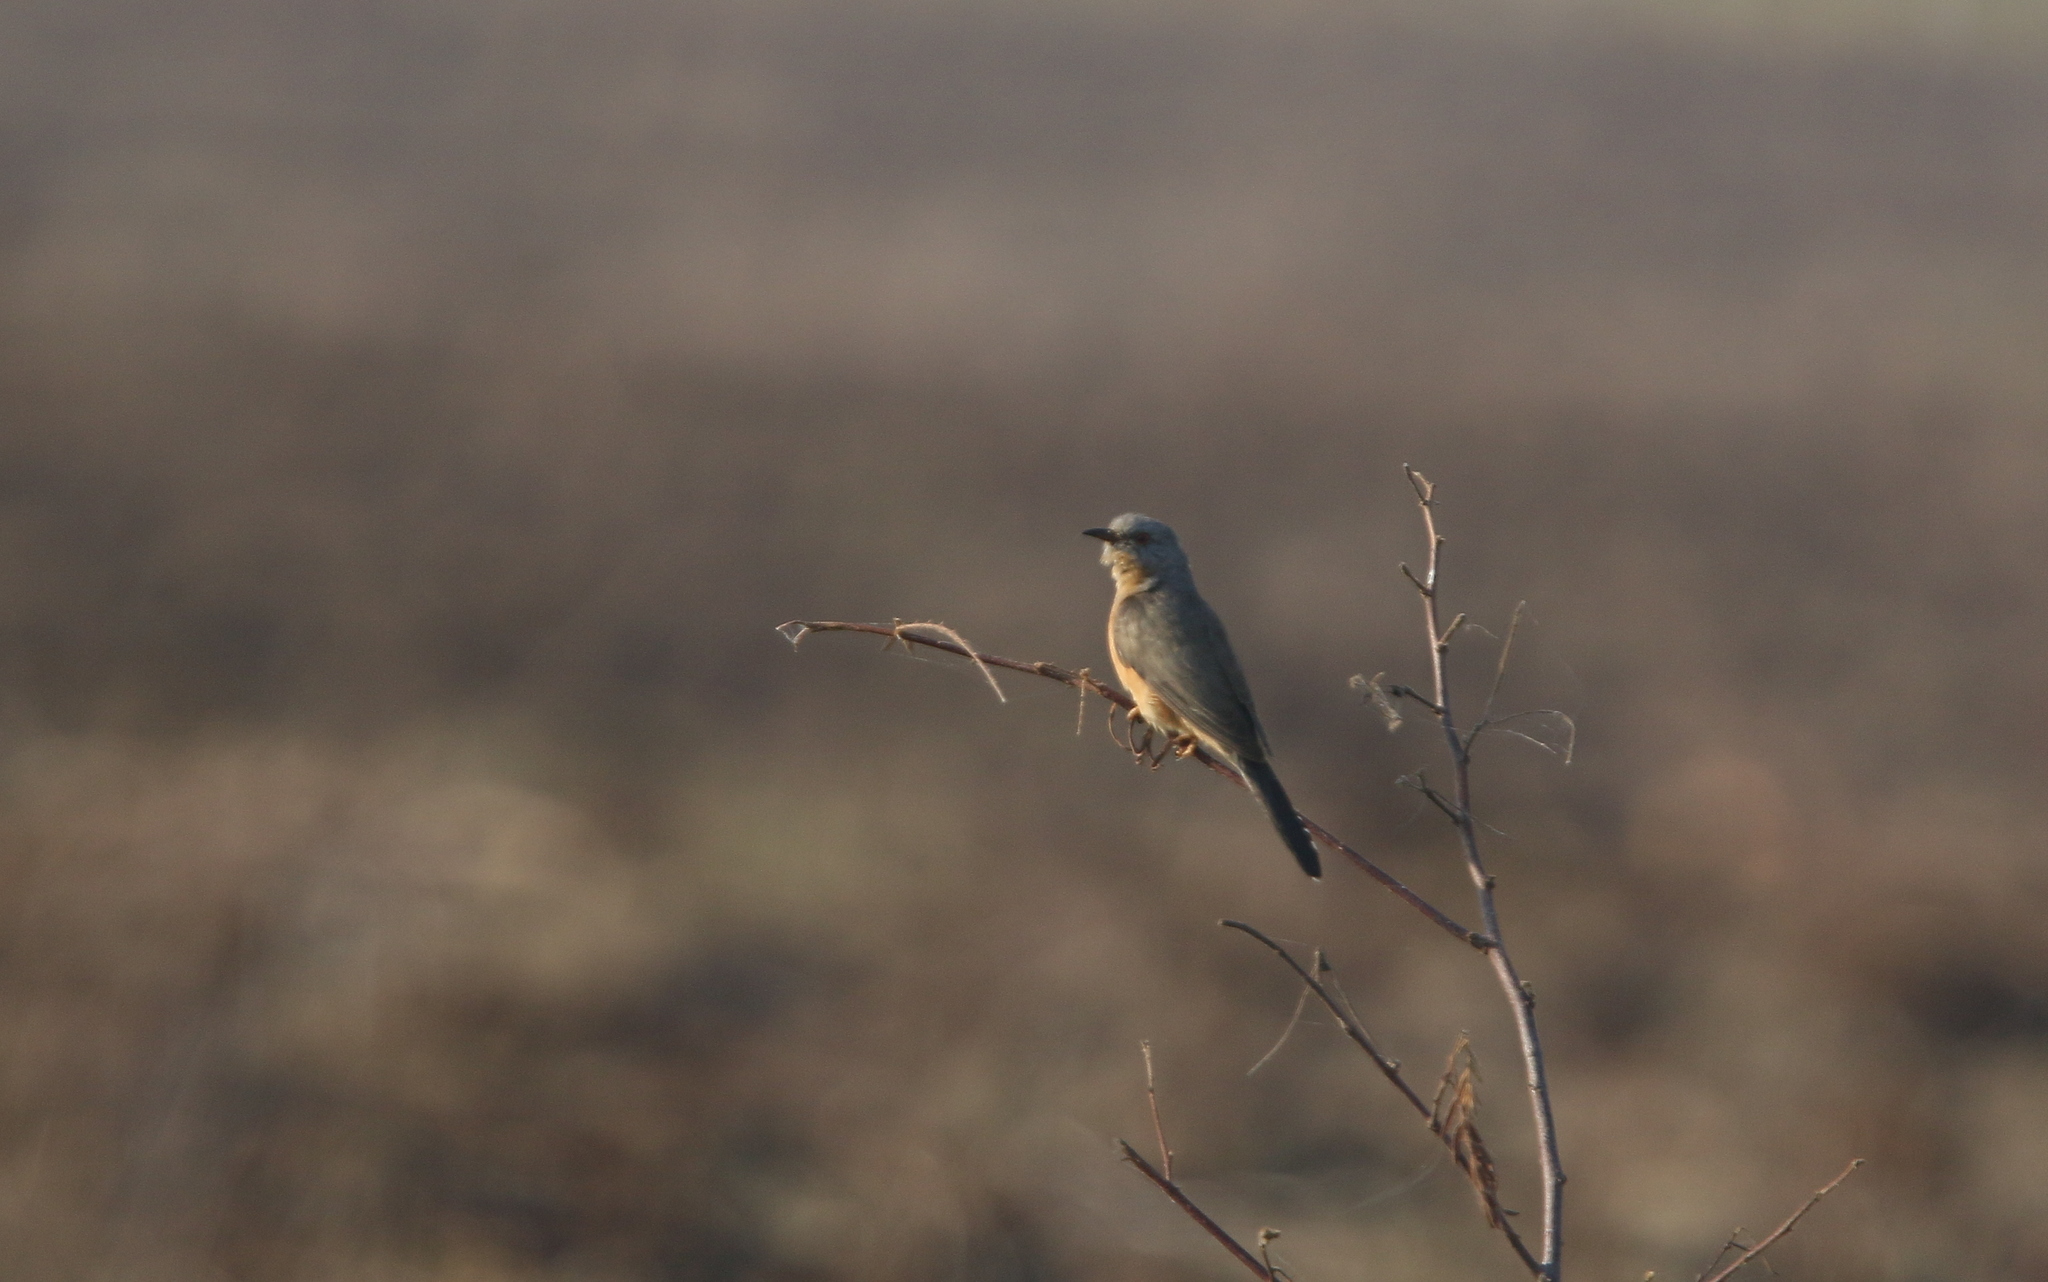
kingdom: Animalia
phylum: Chordata
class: Aves
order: Cuculiformes
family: Cuculidae
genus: Cacomantis
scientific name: Cacomantis merulinus
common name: Plaintive cuckoo
